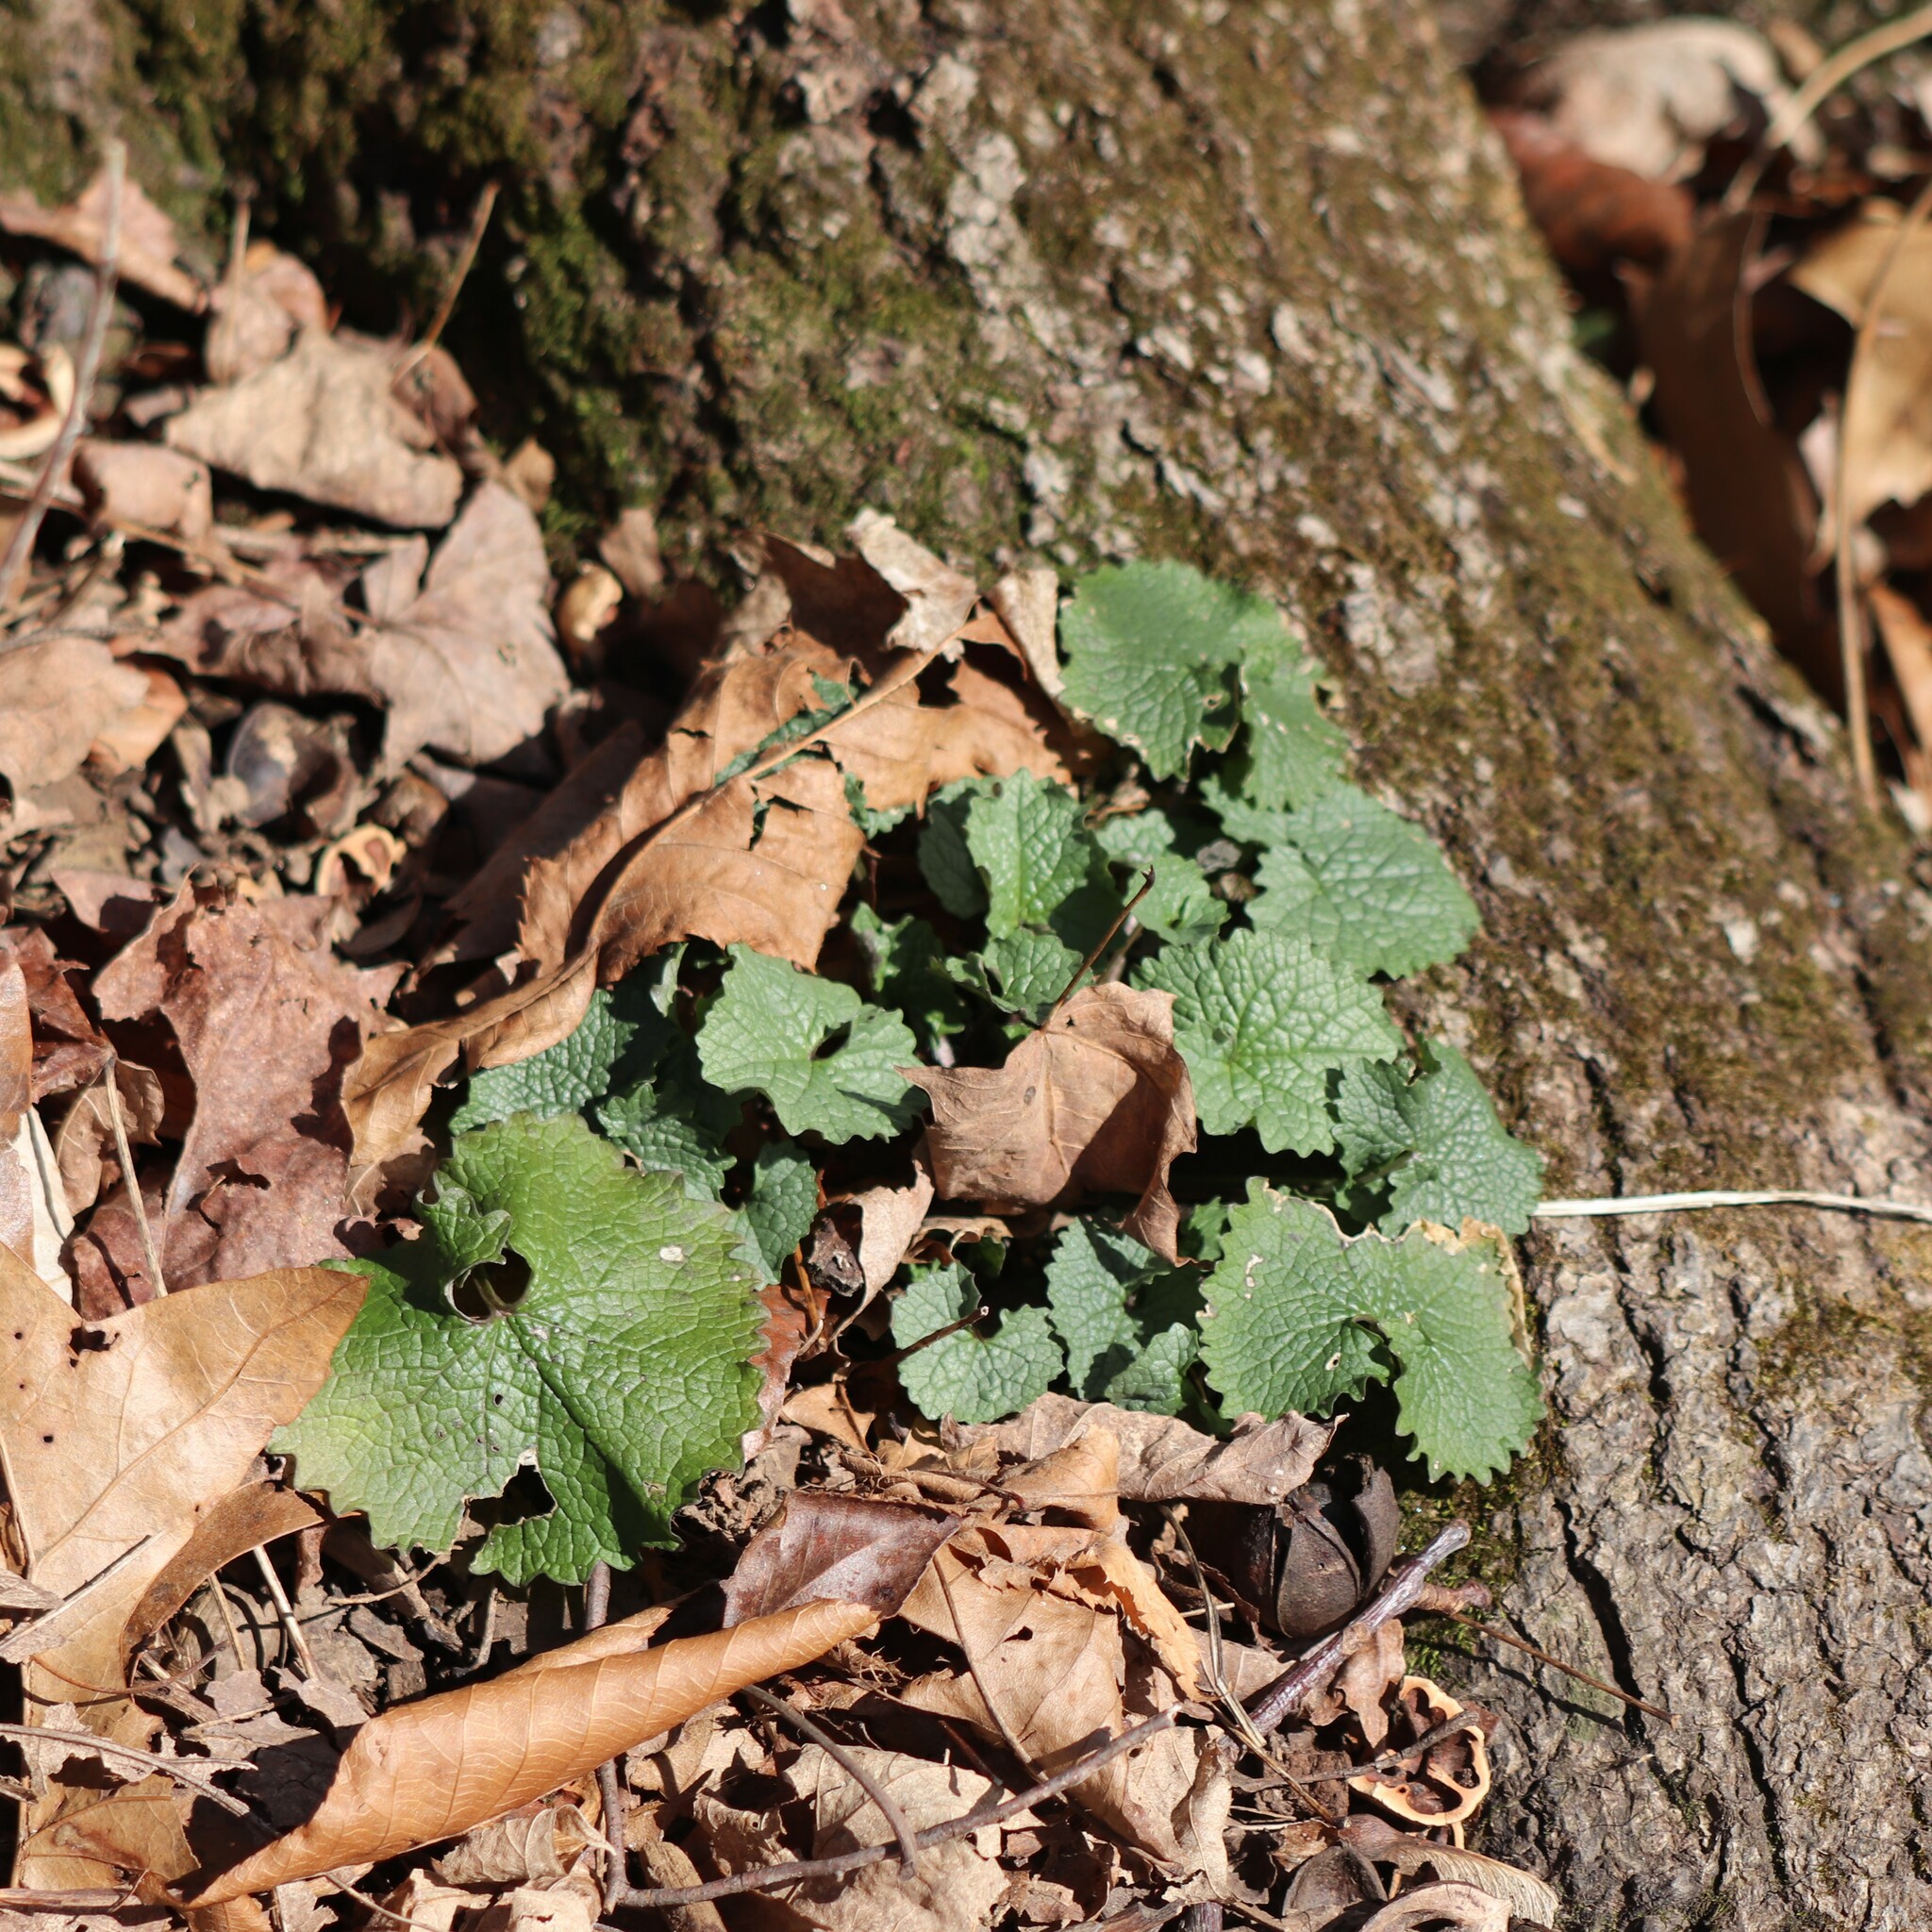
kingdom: Plantae
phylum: Tracheophyta
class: Magnoliopsida
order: Brassicales
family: Brassicaceae
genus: Alliaria
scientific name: Alliaria petiolata
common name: Garlic mustard
